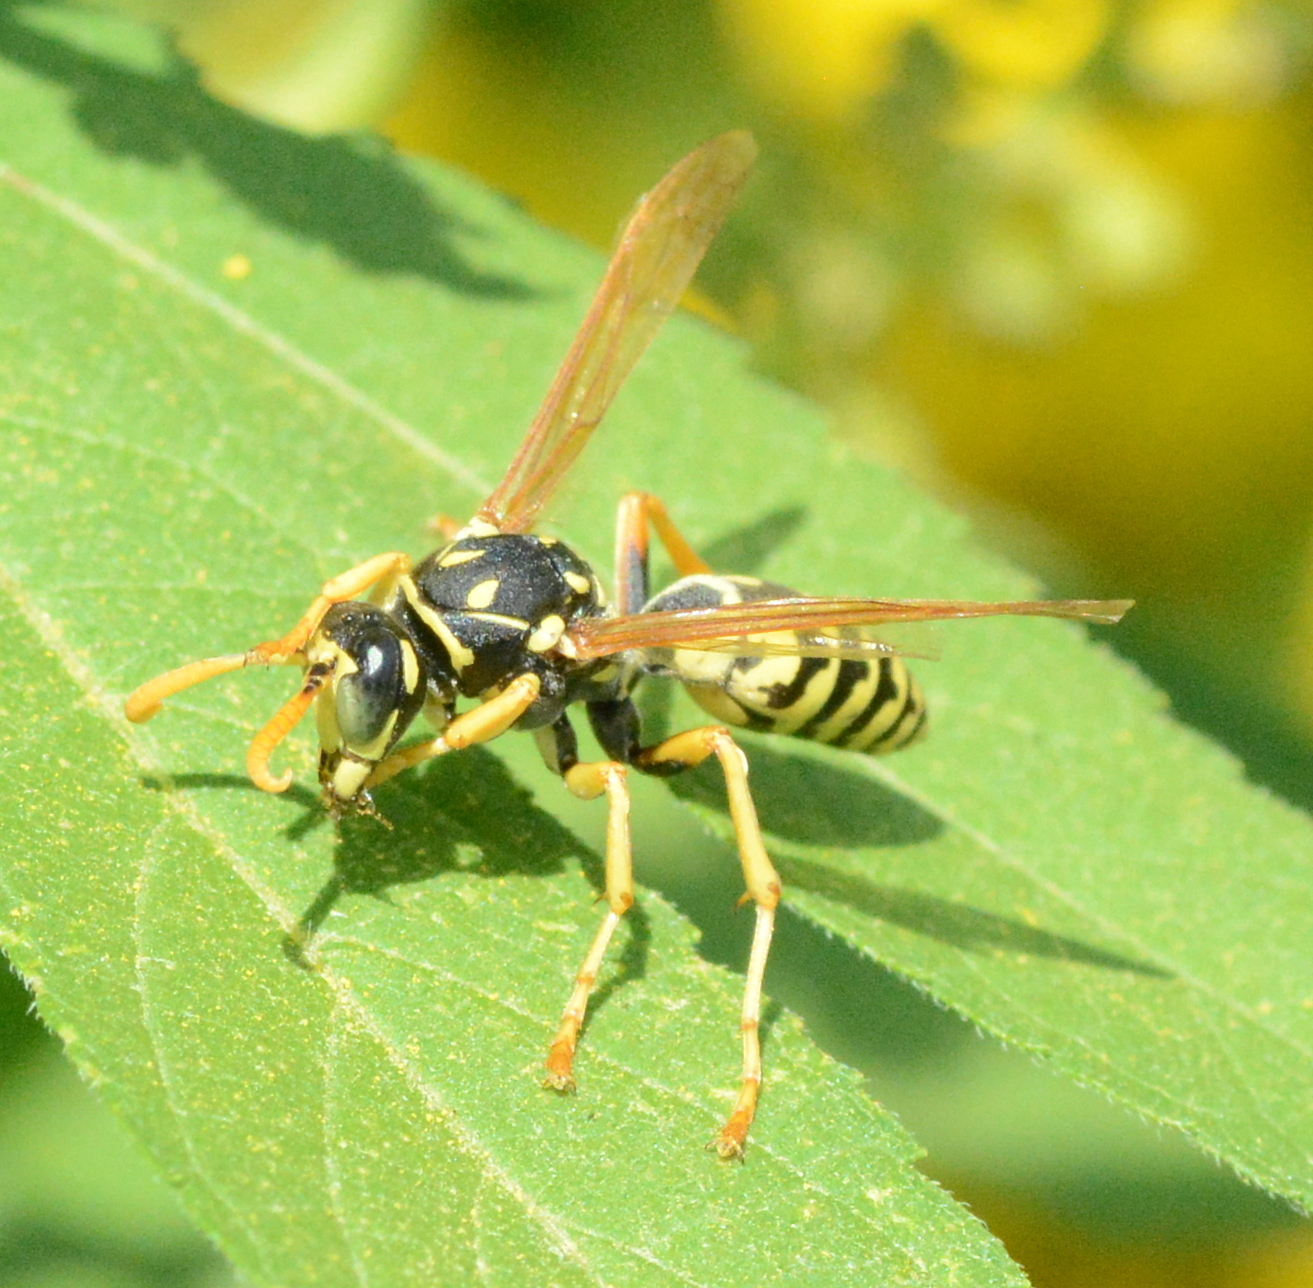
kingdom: Animalia
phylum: Arthropoda
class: Insecta
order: Hymenoptera
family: Eumenidae
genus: Polistes
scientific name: Polistes dominula
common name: Paper wasp
